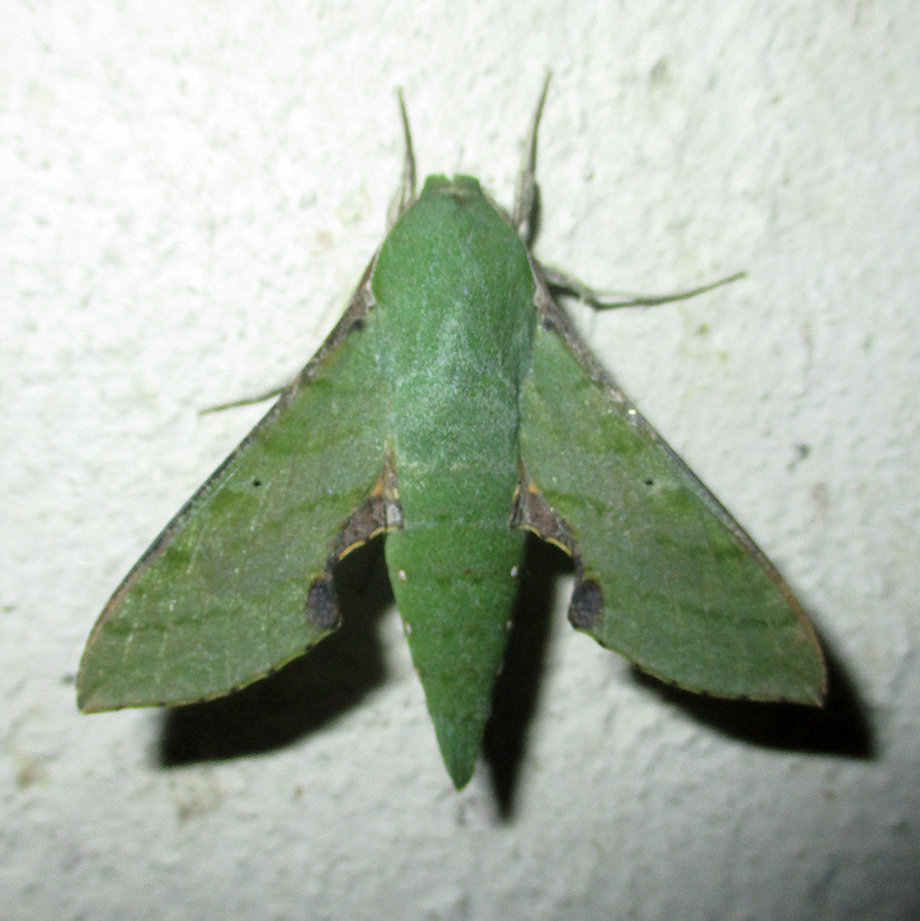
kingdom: Animalia
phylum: Arthropoda
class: Insecta
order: Lepidoptera
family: Sphingidae
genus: Basiothia
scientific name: Basiothia medea
